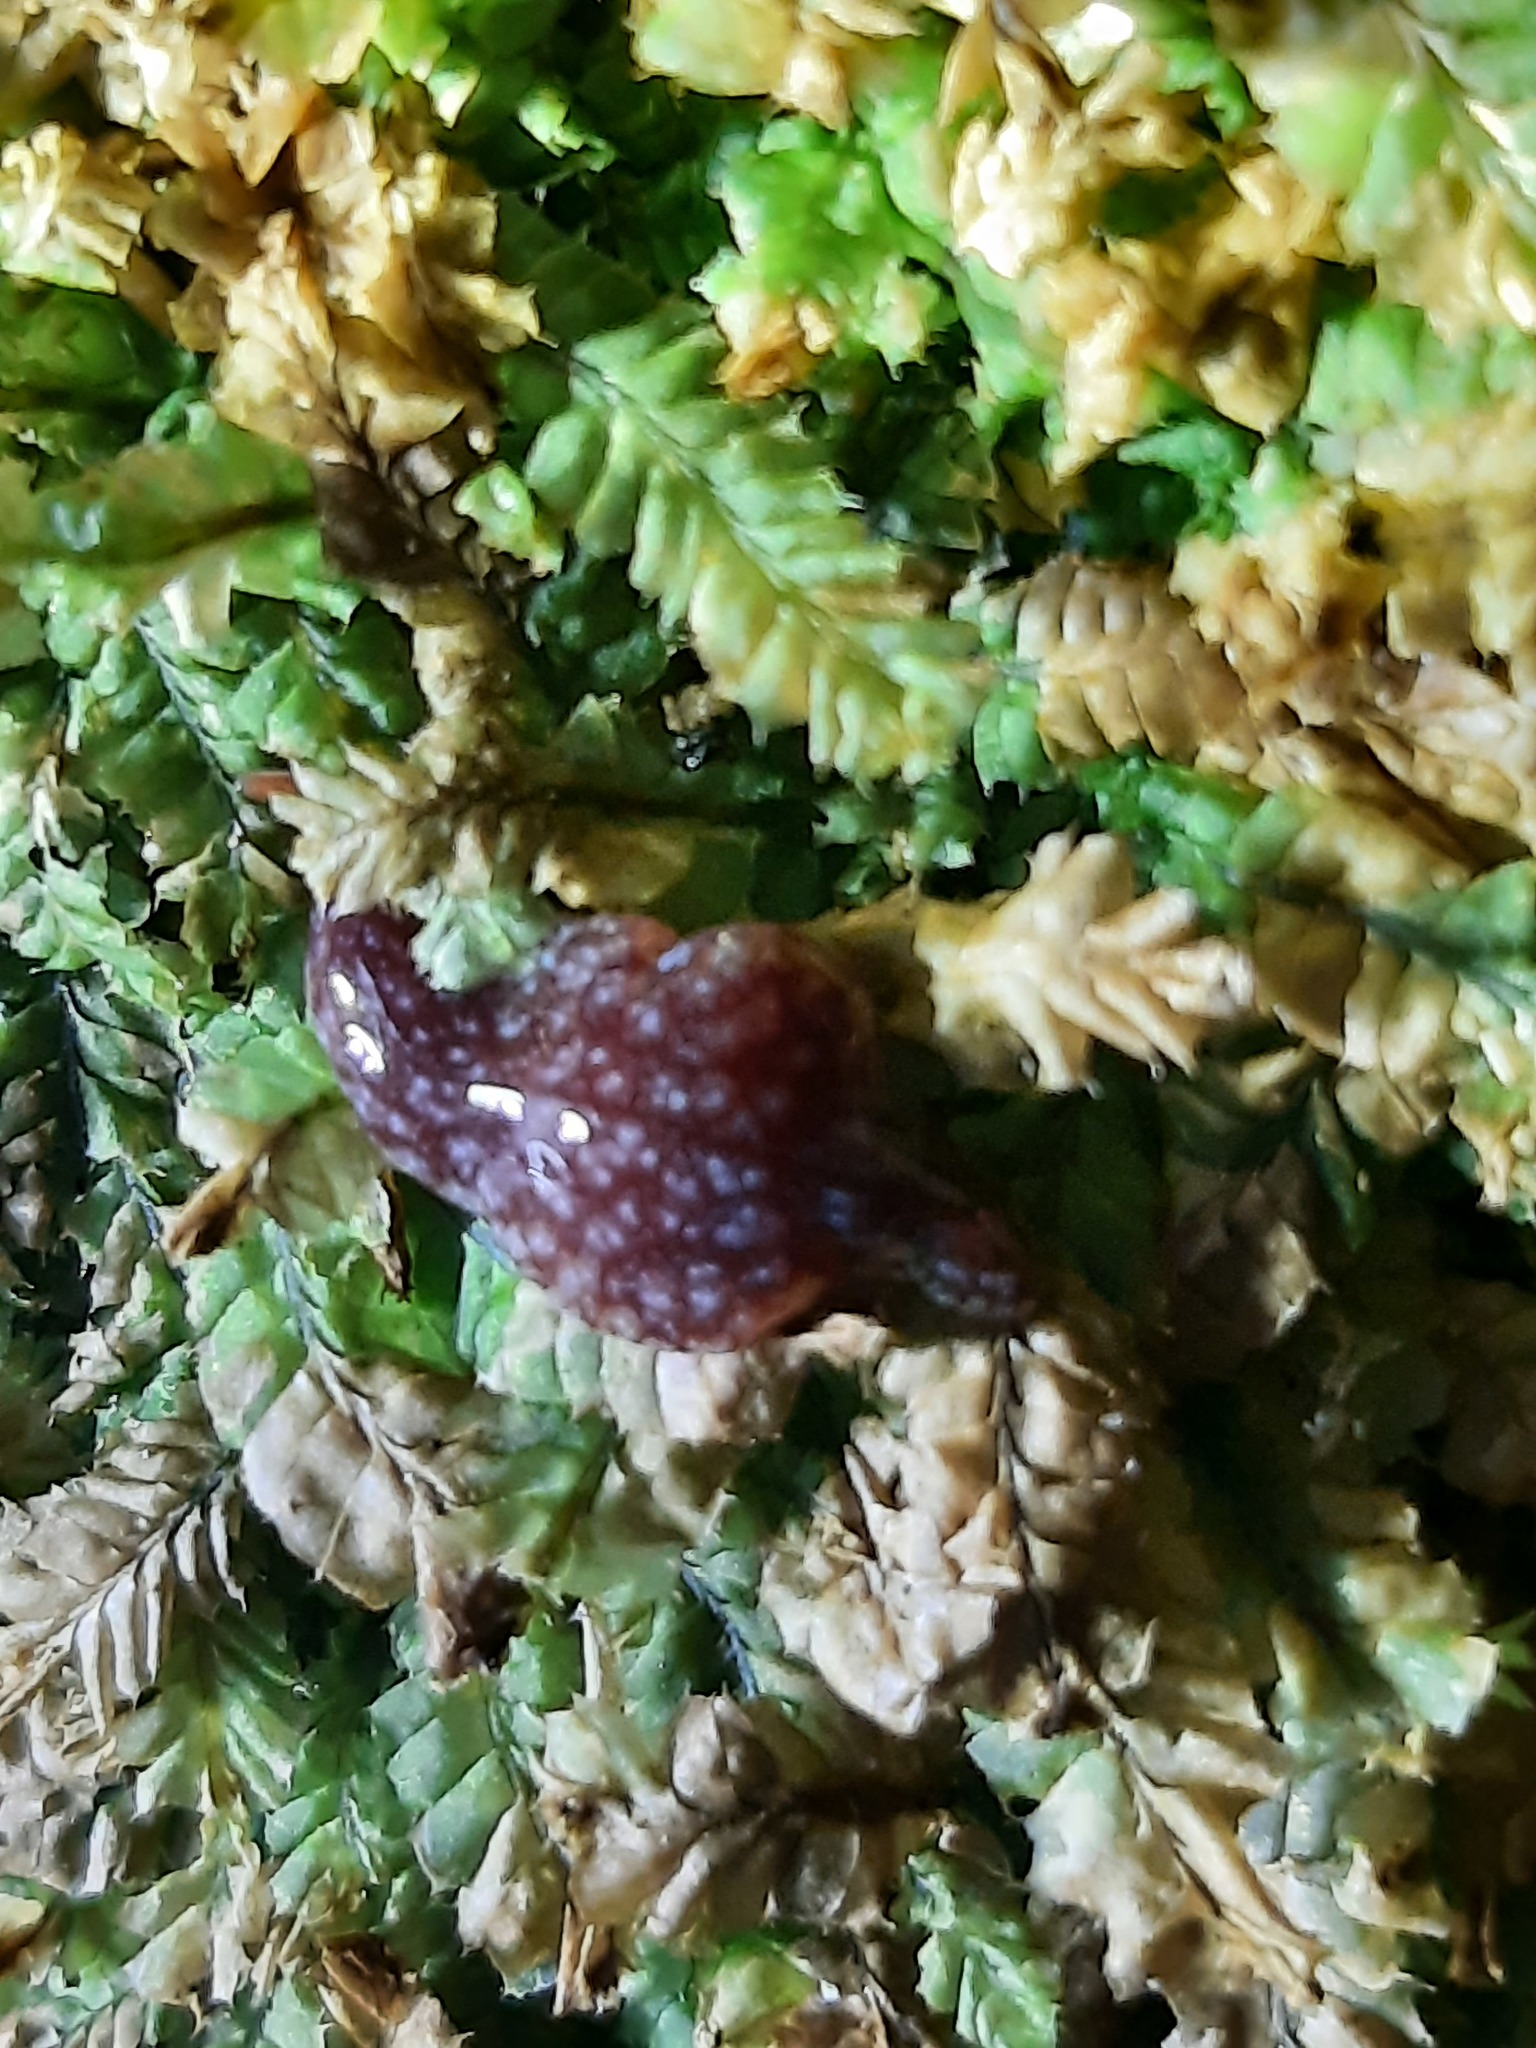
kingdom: Animalia
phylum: Platyhelminthes
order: Tricladida
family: Geoplanidae
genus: Australopacifica
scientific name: Australopacifica spectabilis
